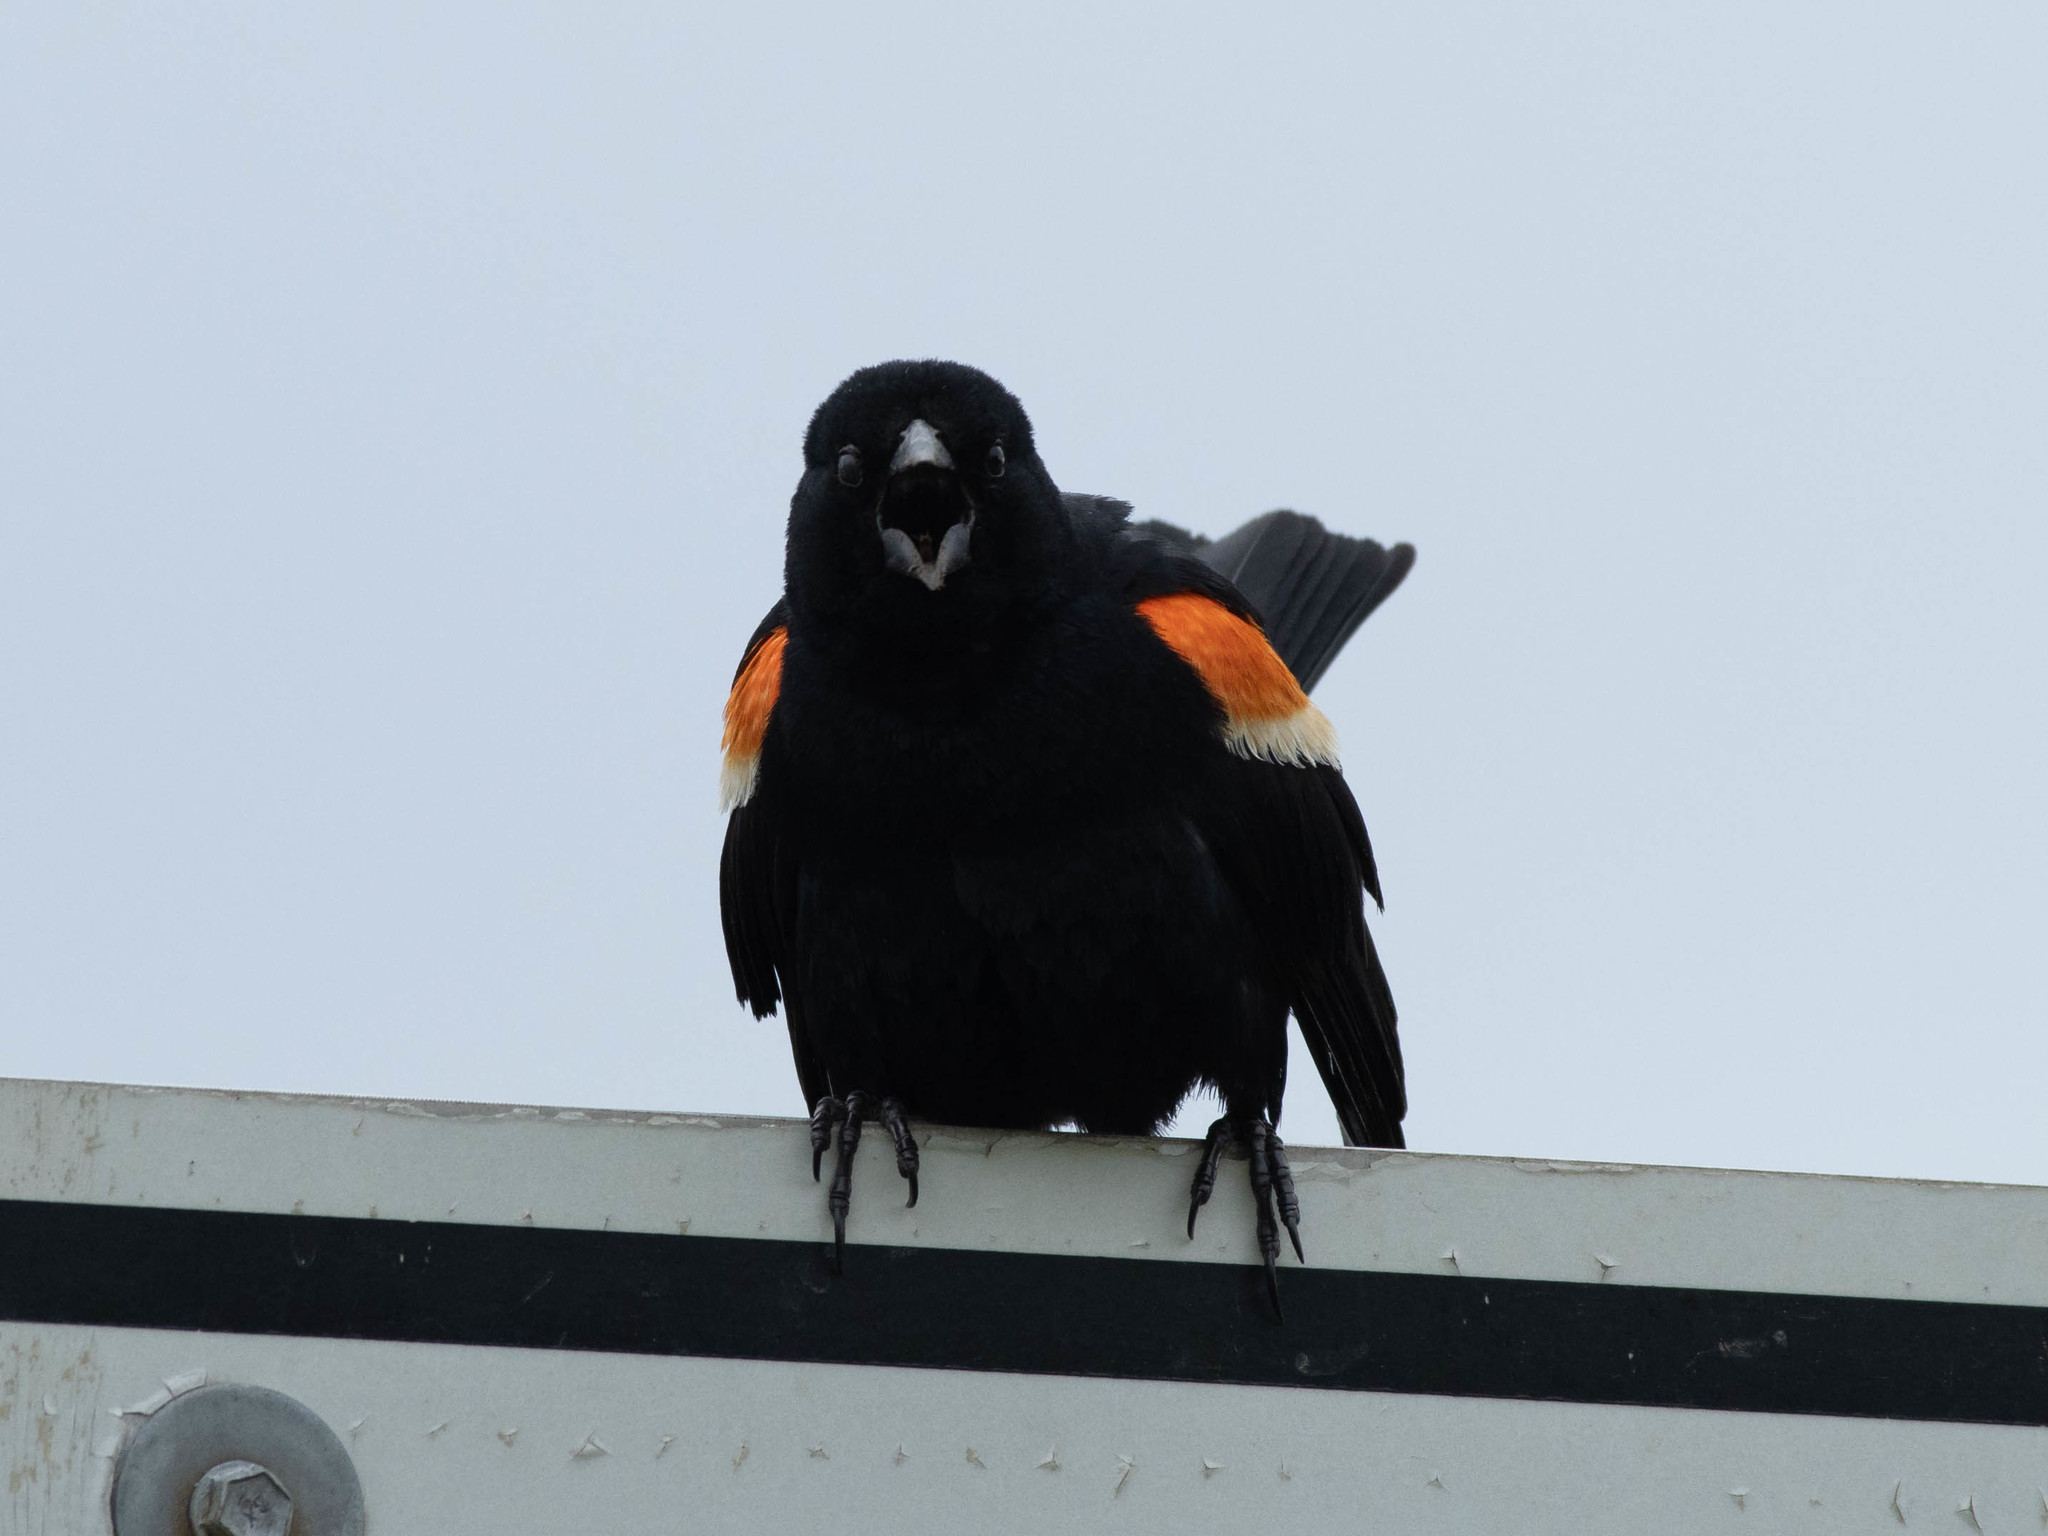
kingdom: Animalia
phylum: Chordata
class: Aves
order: Passeriformes
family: Icteridae
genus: Agelaius
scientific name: Agelaius phoeniceus
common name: Red-winged blackbird
